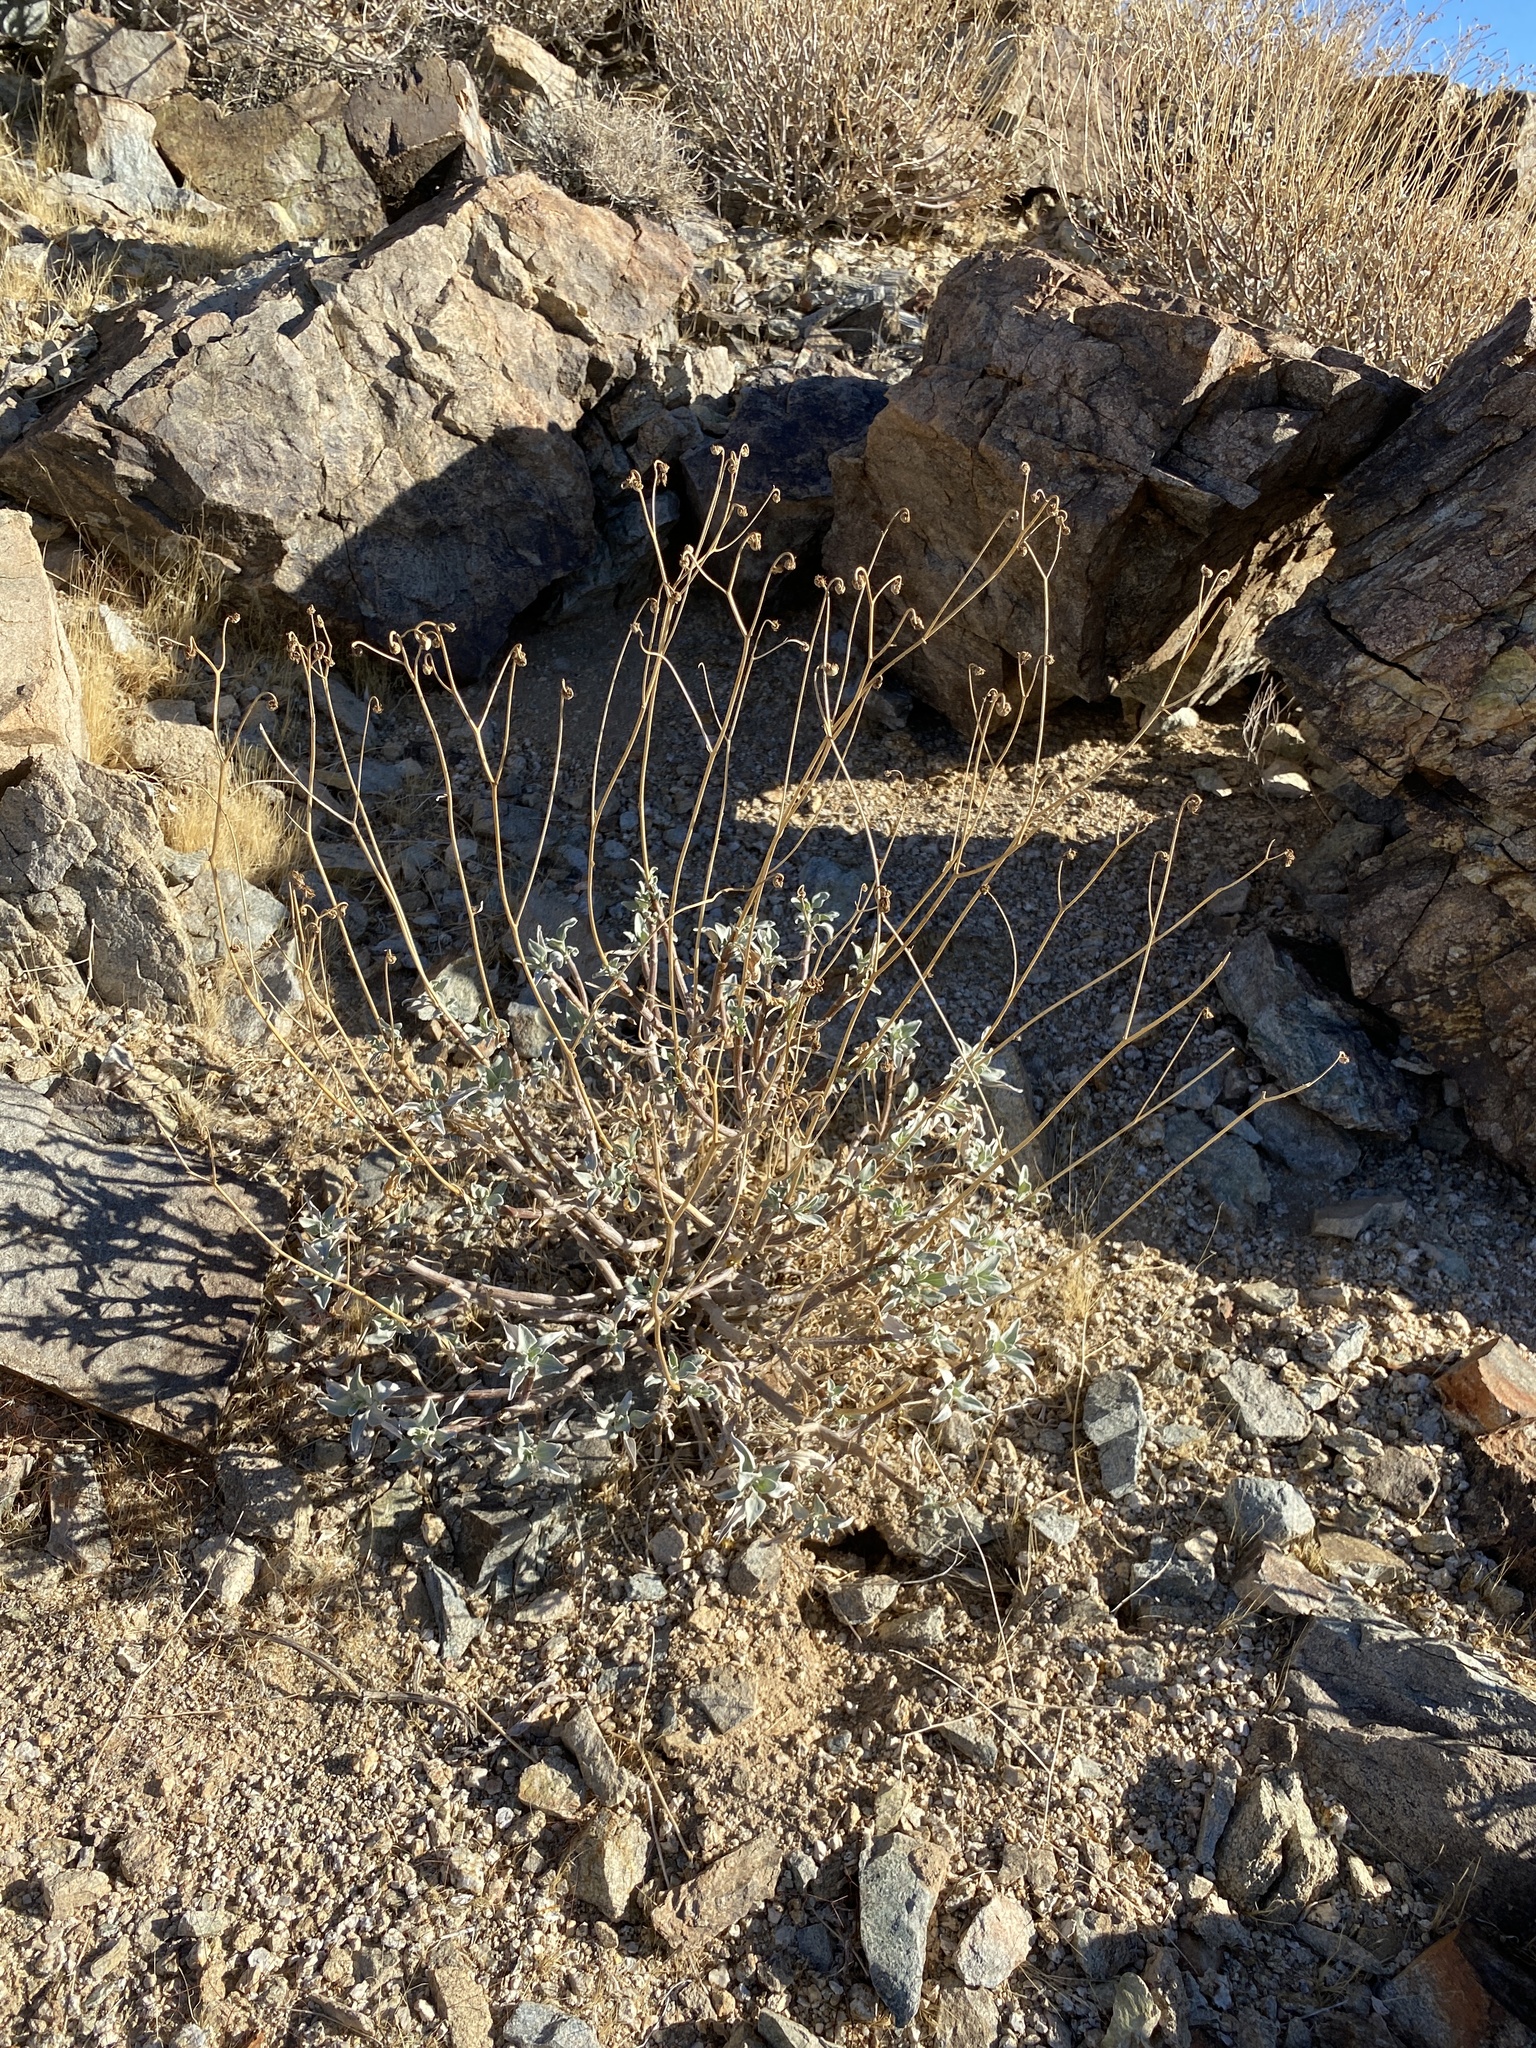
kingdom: Plantae
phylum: Tracheophyta
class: Magnoliopsida
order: Asterales
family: Asteraceae
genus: Encelia
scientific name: Encelia farinosa
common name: Brittlebush
